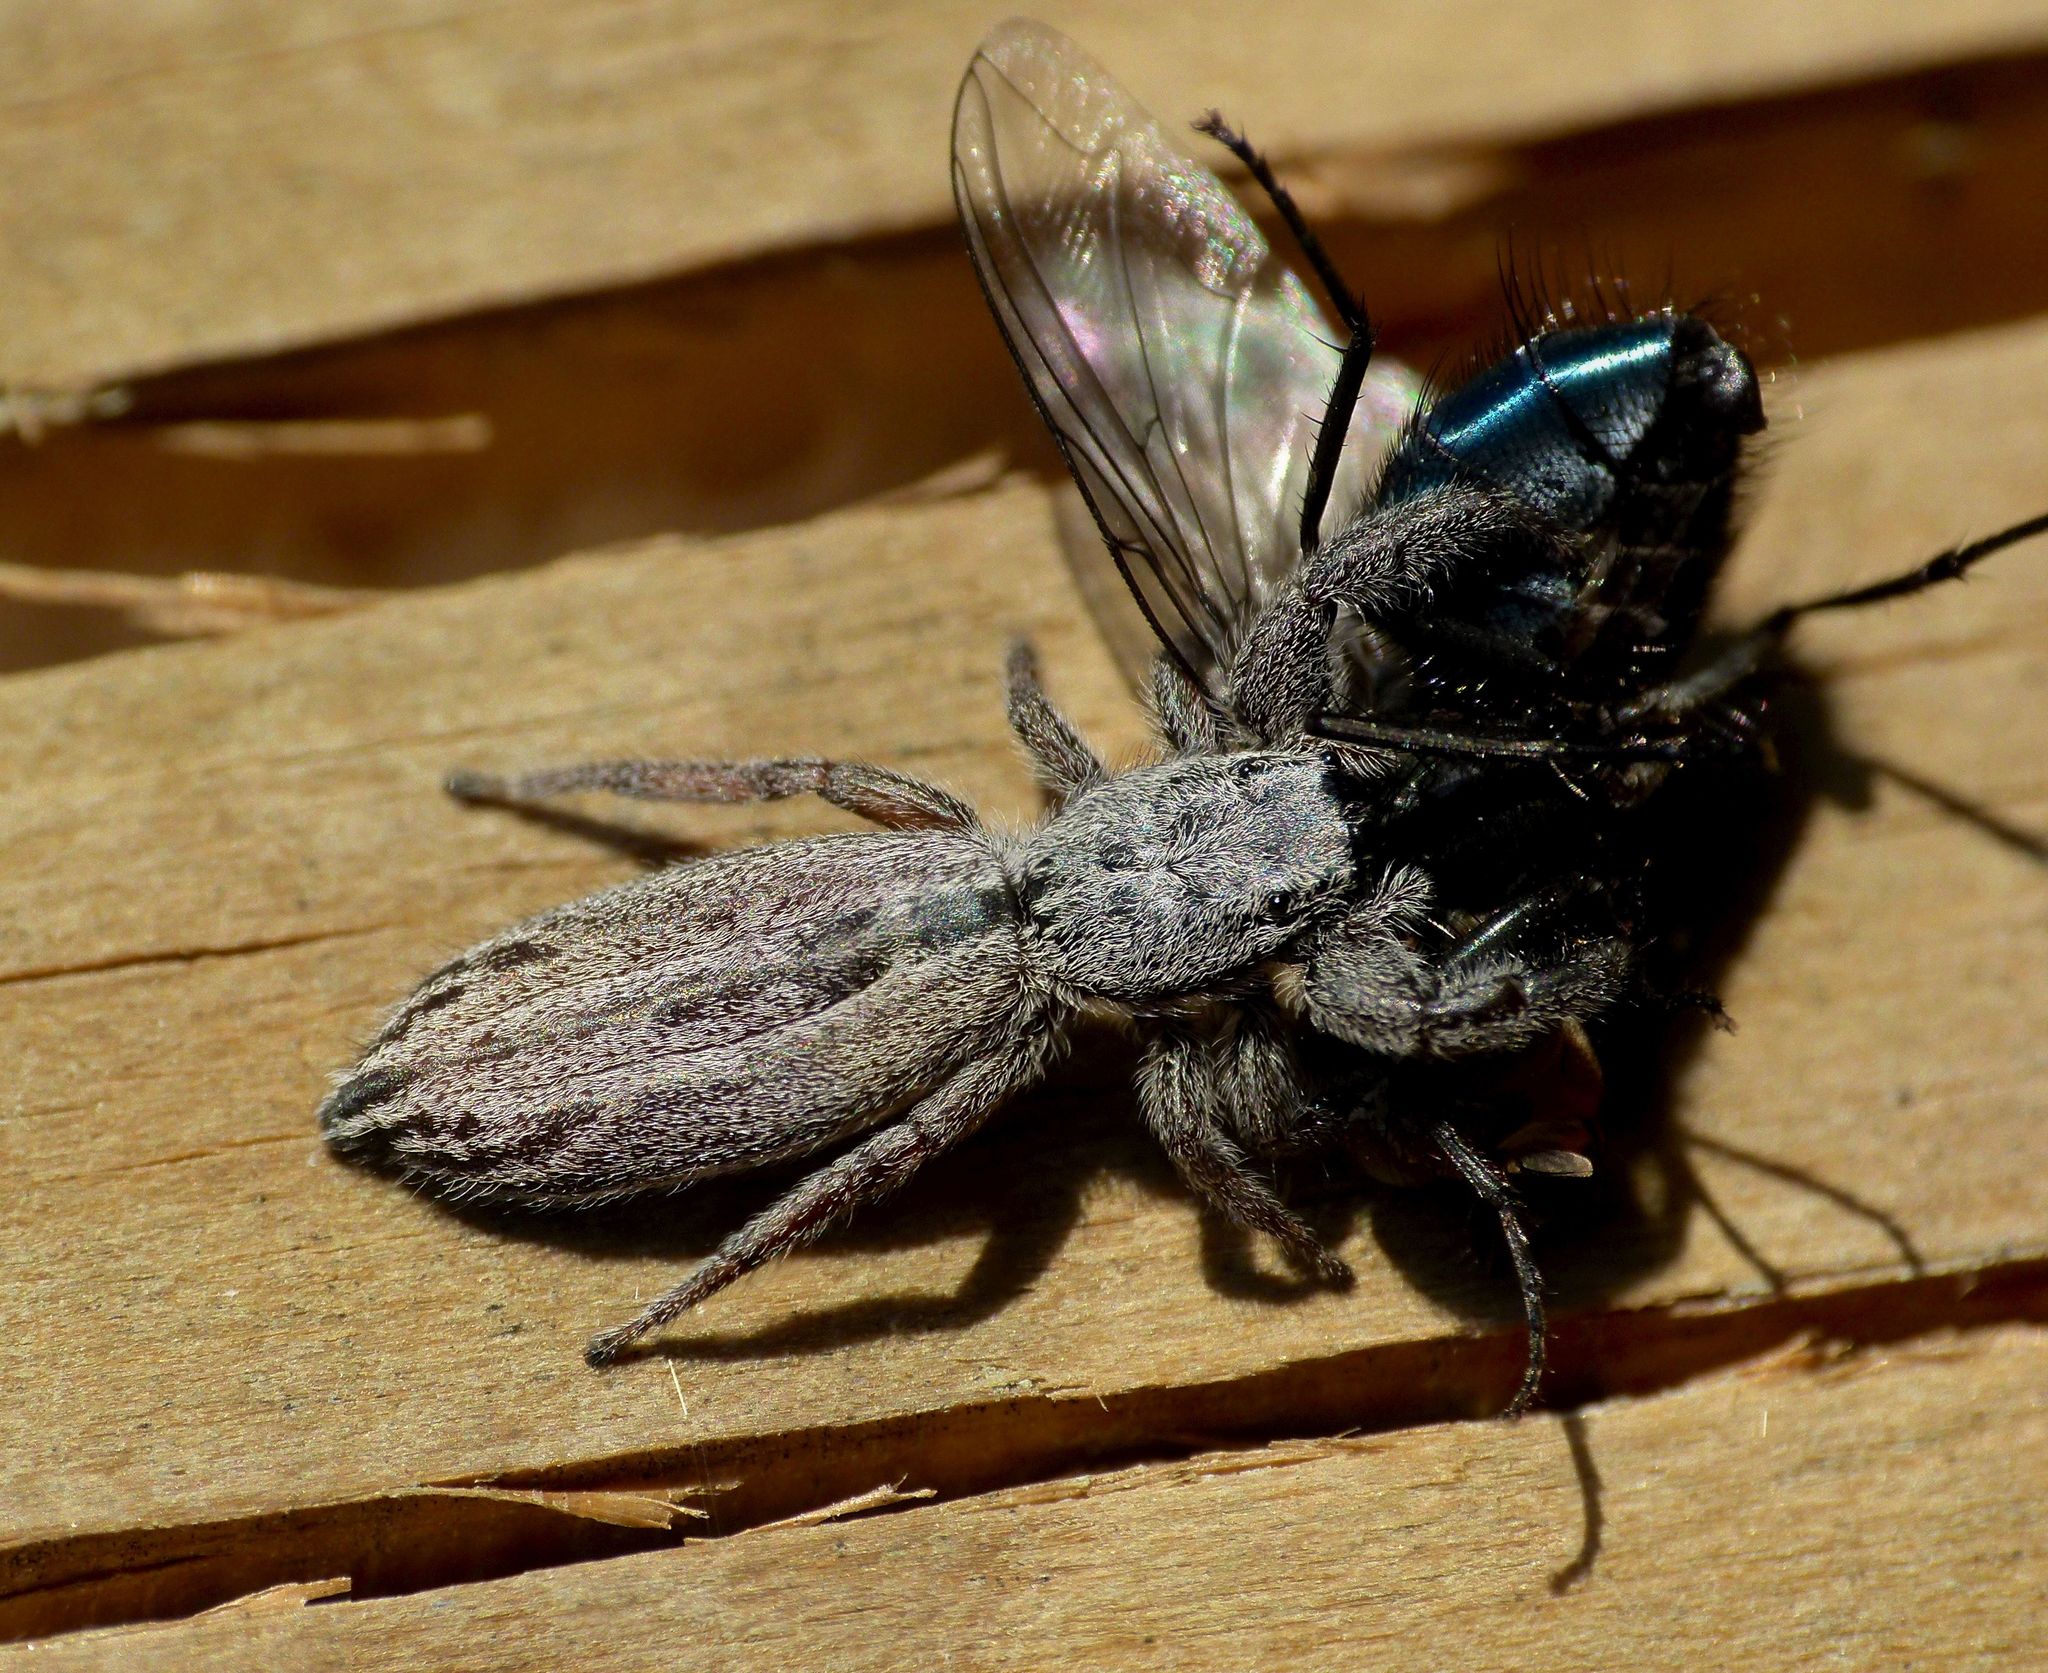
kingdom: Animalia
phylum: Arthropoda
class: Arachnida
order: Araneae
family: Salticidae
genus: Holoplatys
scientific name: Holoplatys apressus
